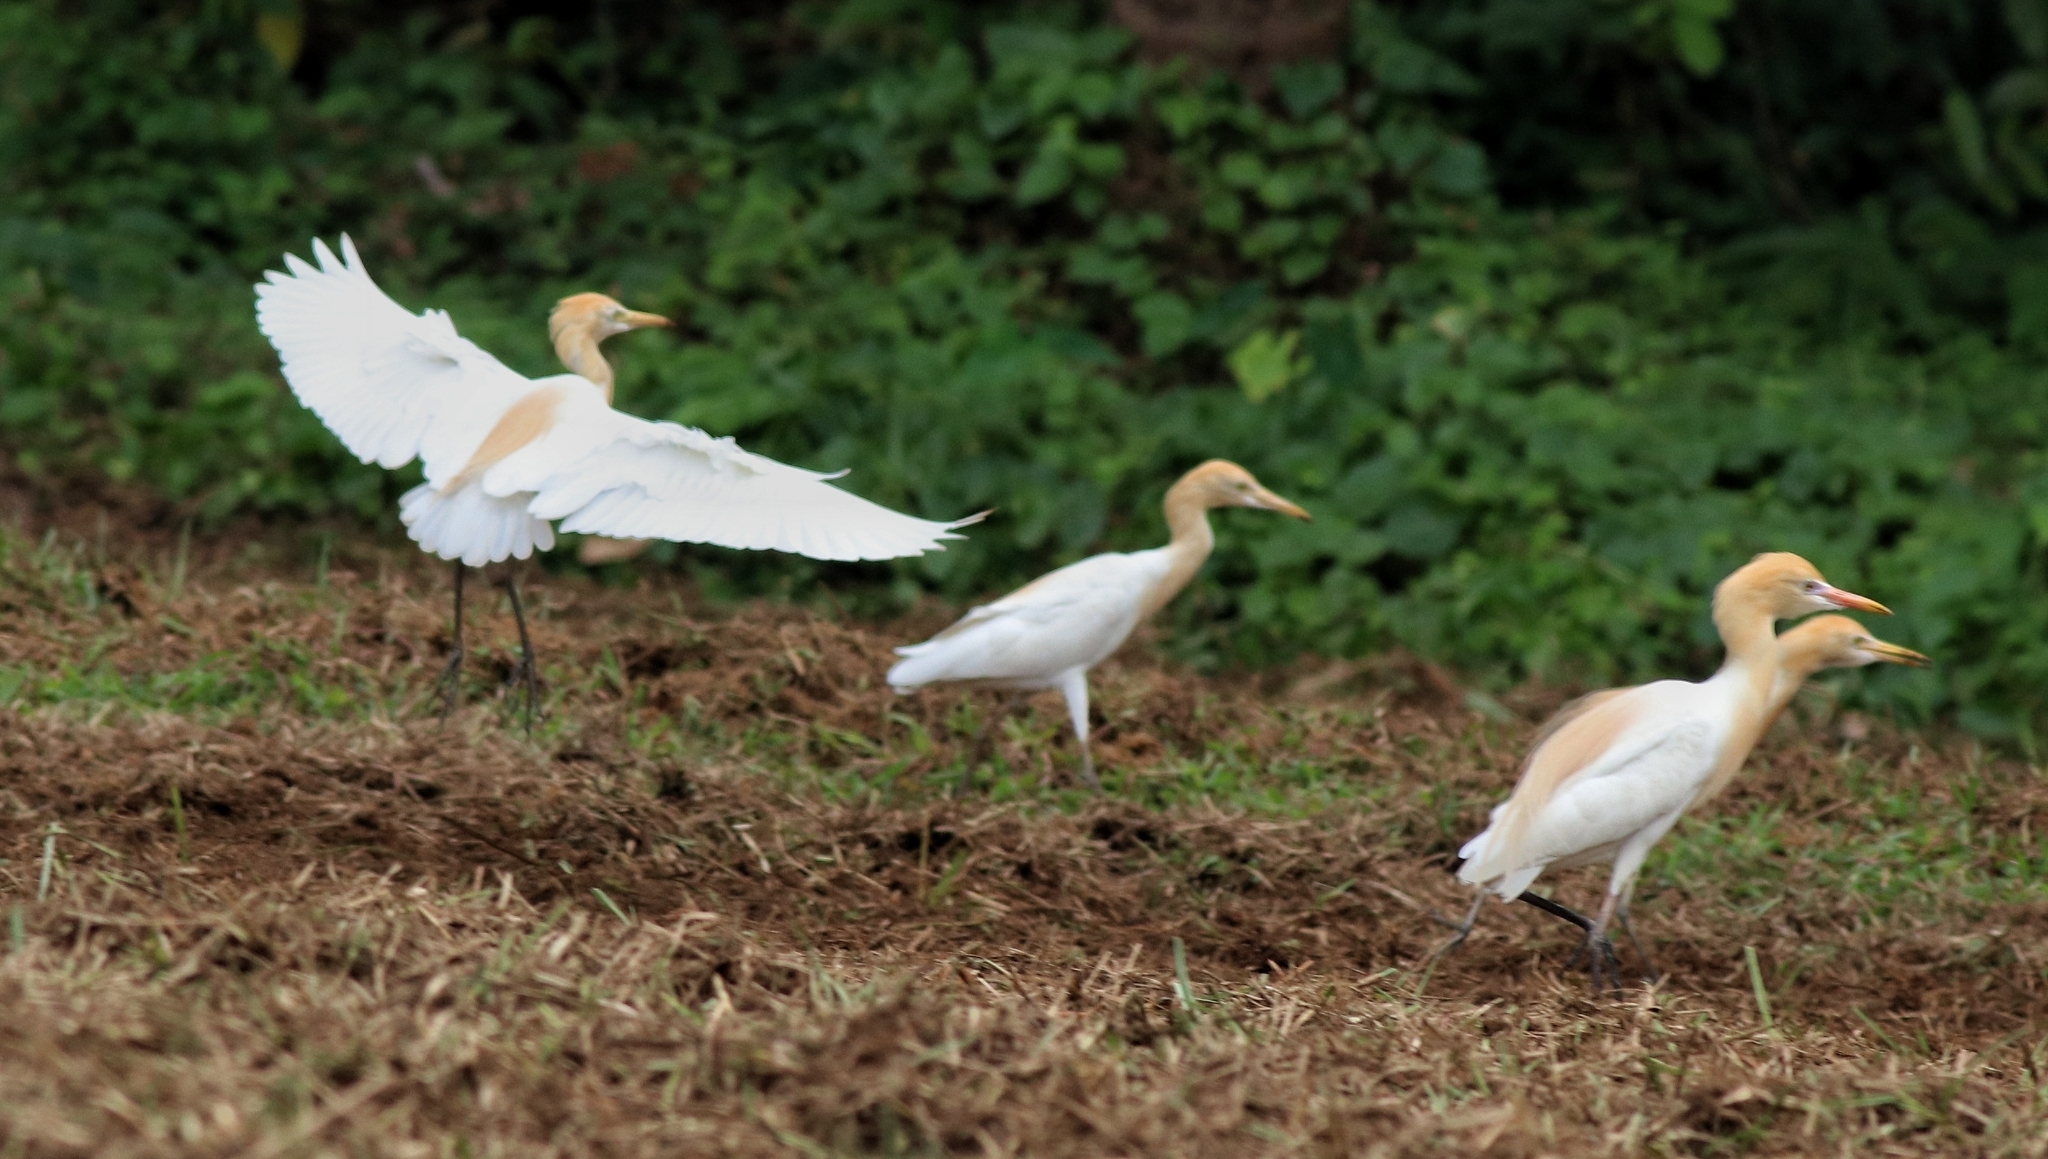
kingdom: Animalia
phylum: Chordata
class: Aves
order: Pelecaniformes
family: Ardeidae
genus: Bubulcus
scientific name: Bubulcus coromandus
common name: Eastern cattle egret
